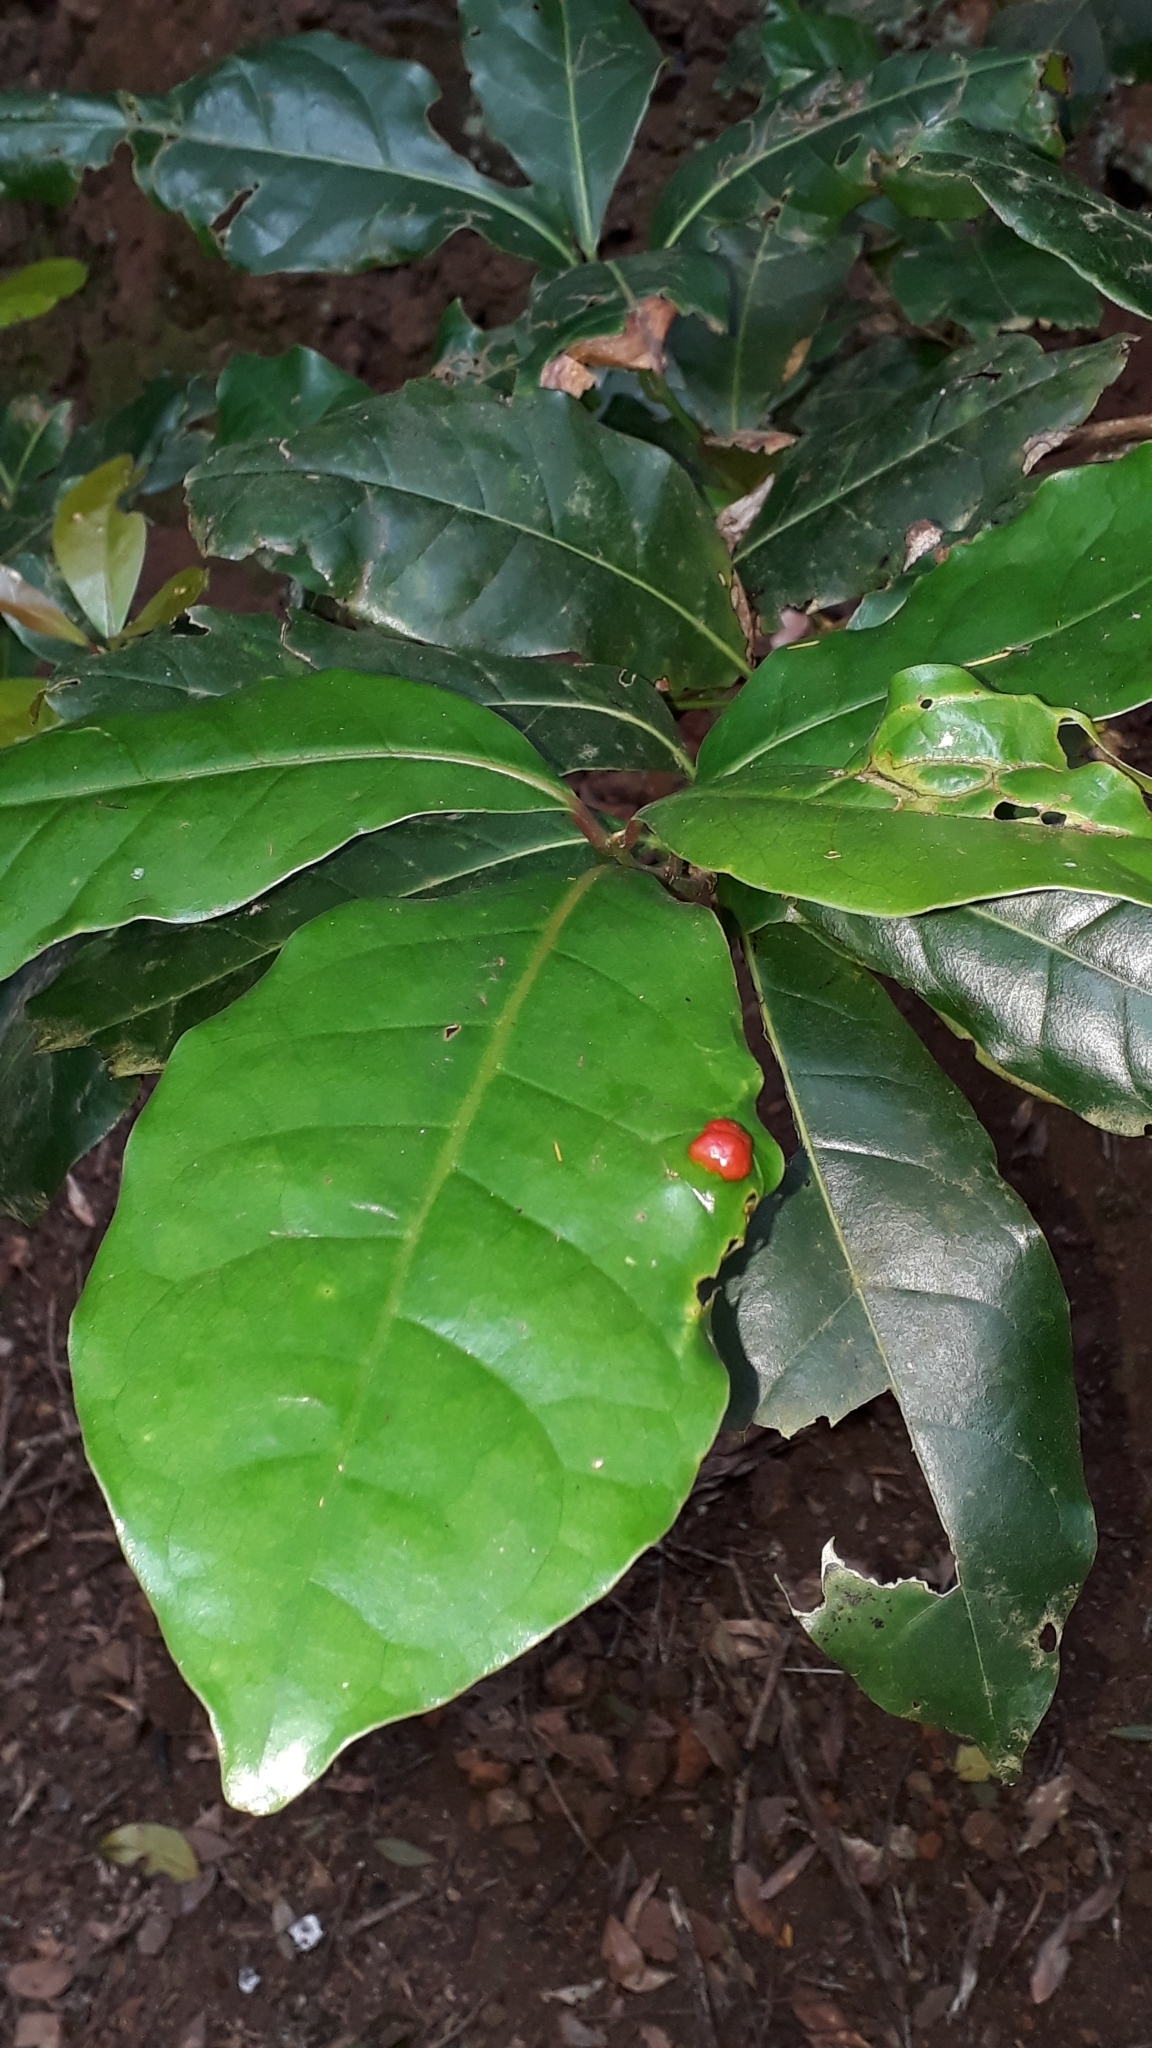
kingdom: Plantae
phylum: Tracheophyta
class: Magnoliopsida
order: Laurales
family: Lauraceae
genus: Apollonias
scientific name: Apollonias barbujana
